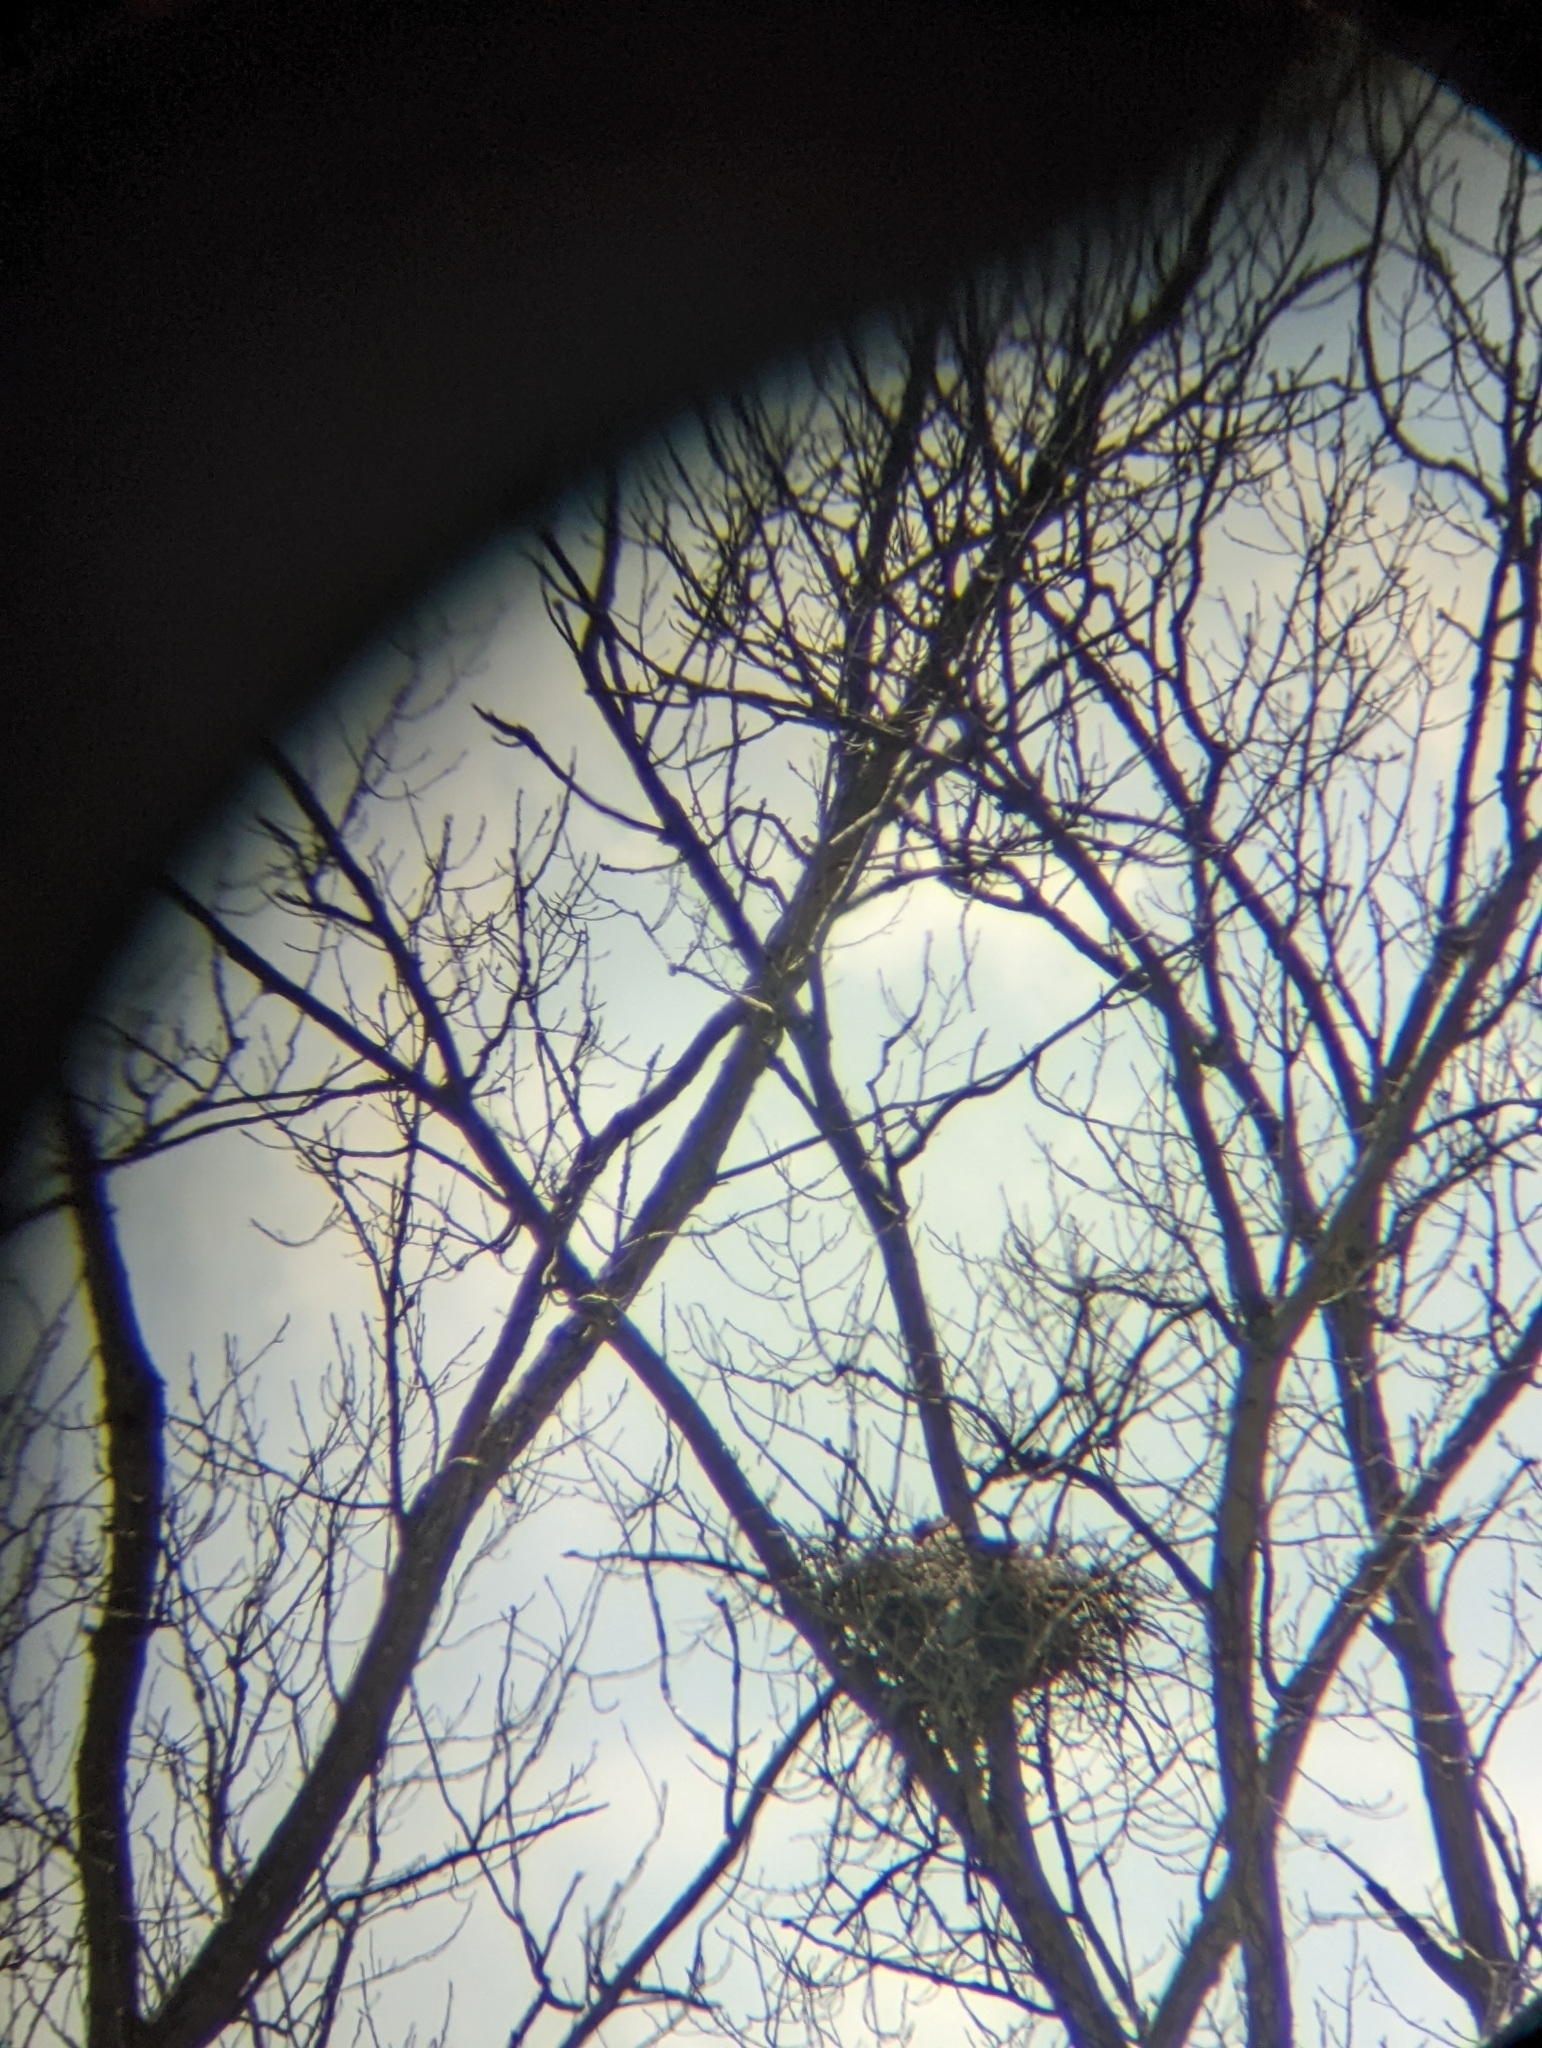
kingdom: Animalia
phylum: Chordata
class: Aves
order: Accipitriformes
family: Accipitridae
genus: Haliaeetus
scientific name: Haliaeetus leucocephalus
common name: Bald eagle
